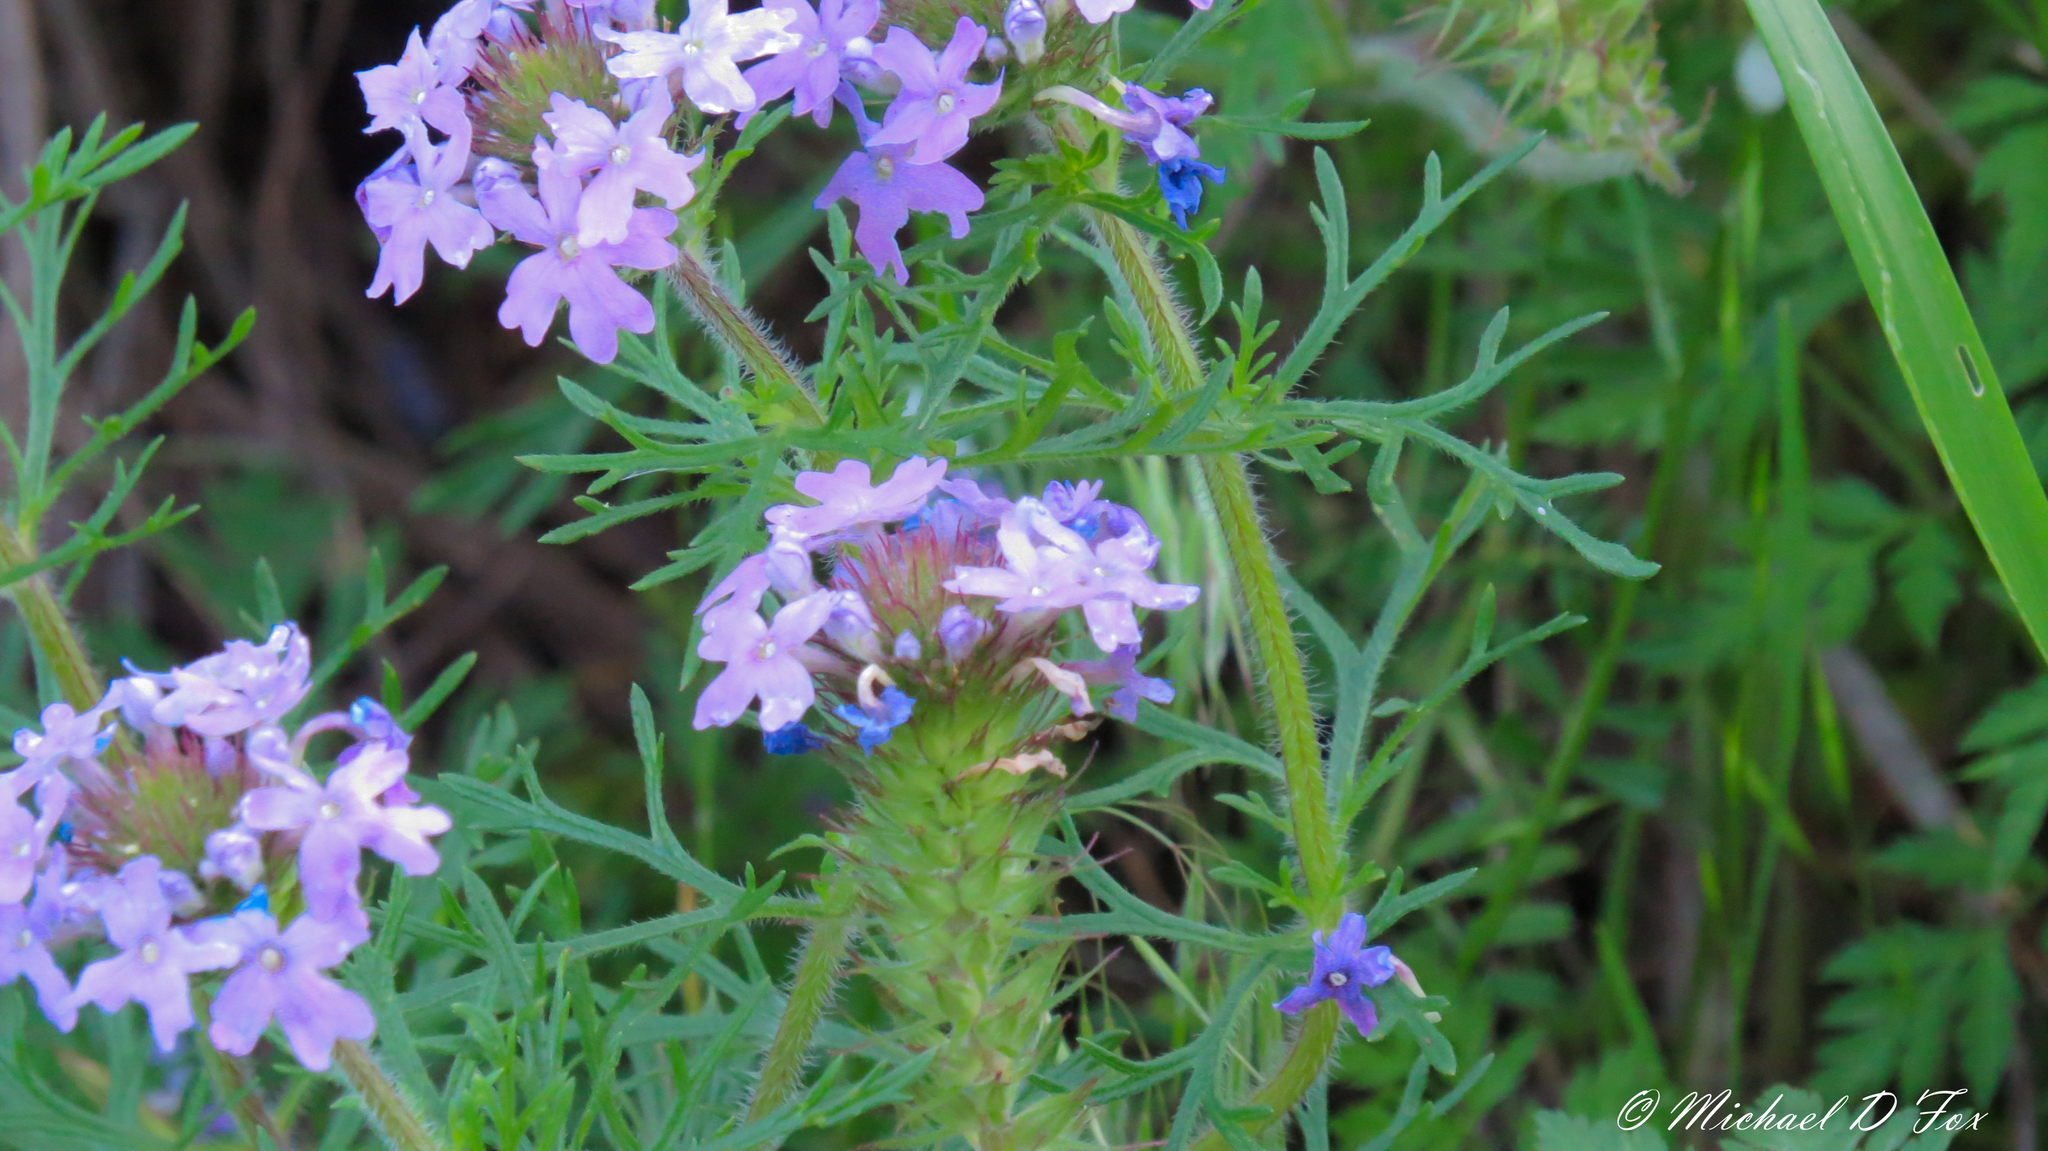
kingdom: Plantae
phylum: Tracheophyta
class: Magnoliopsida
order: Lamiales
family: Verbenaceae
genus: Verbena
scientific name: Verbena bipinnatifida
